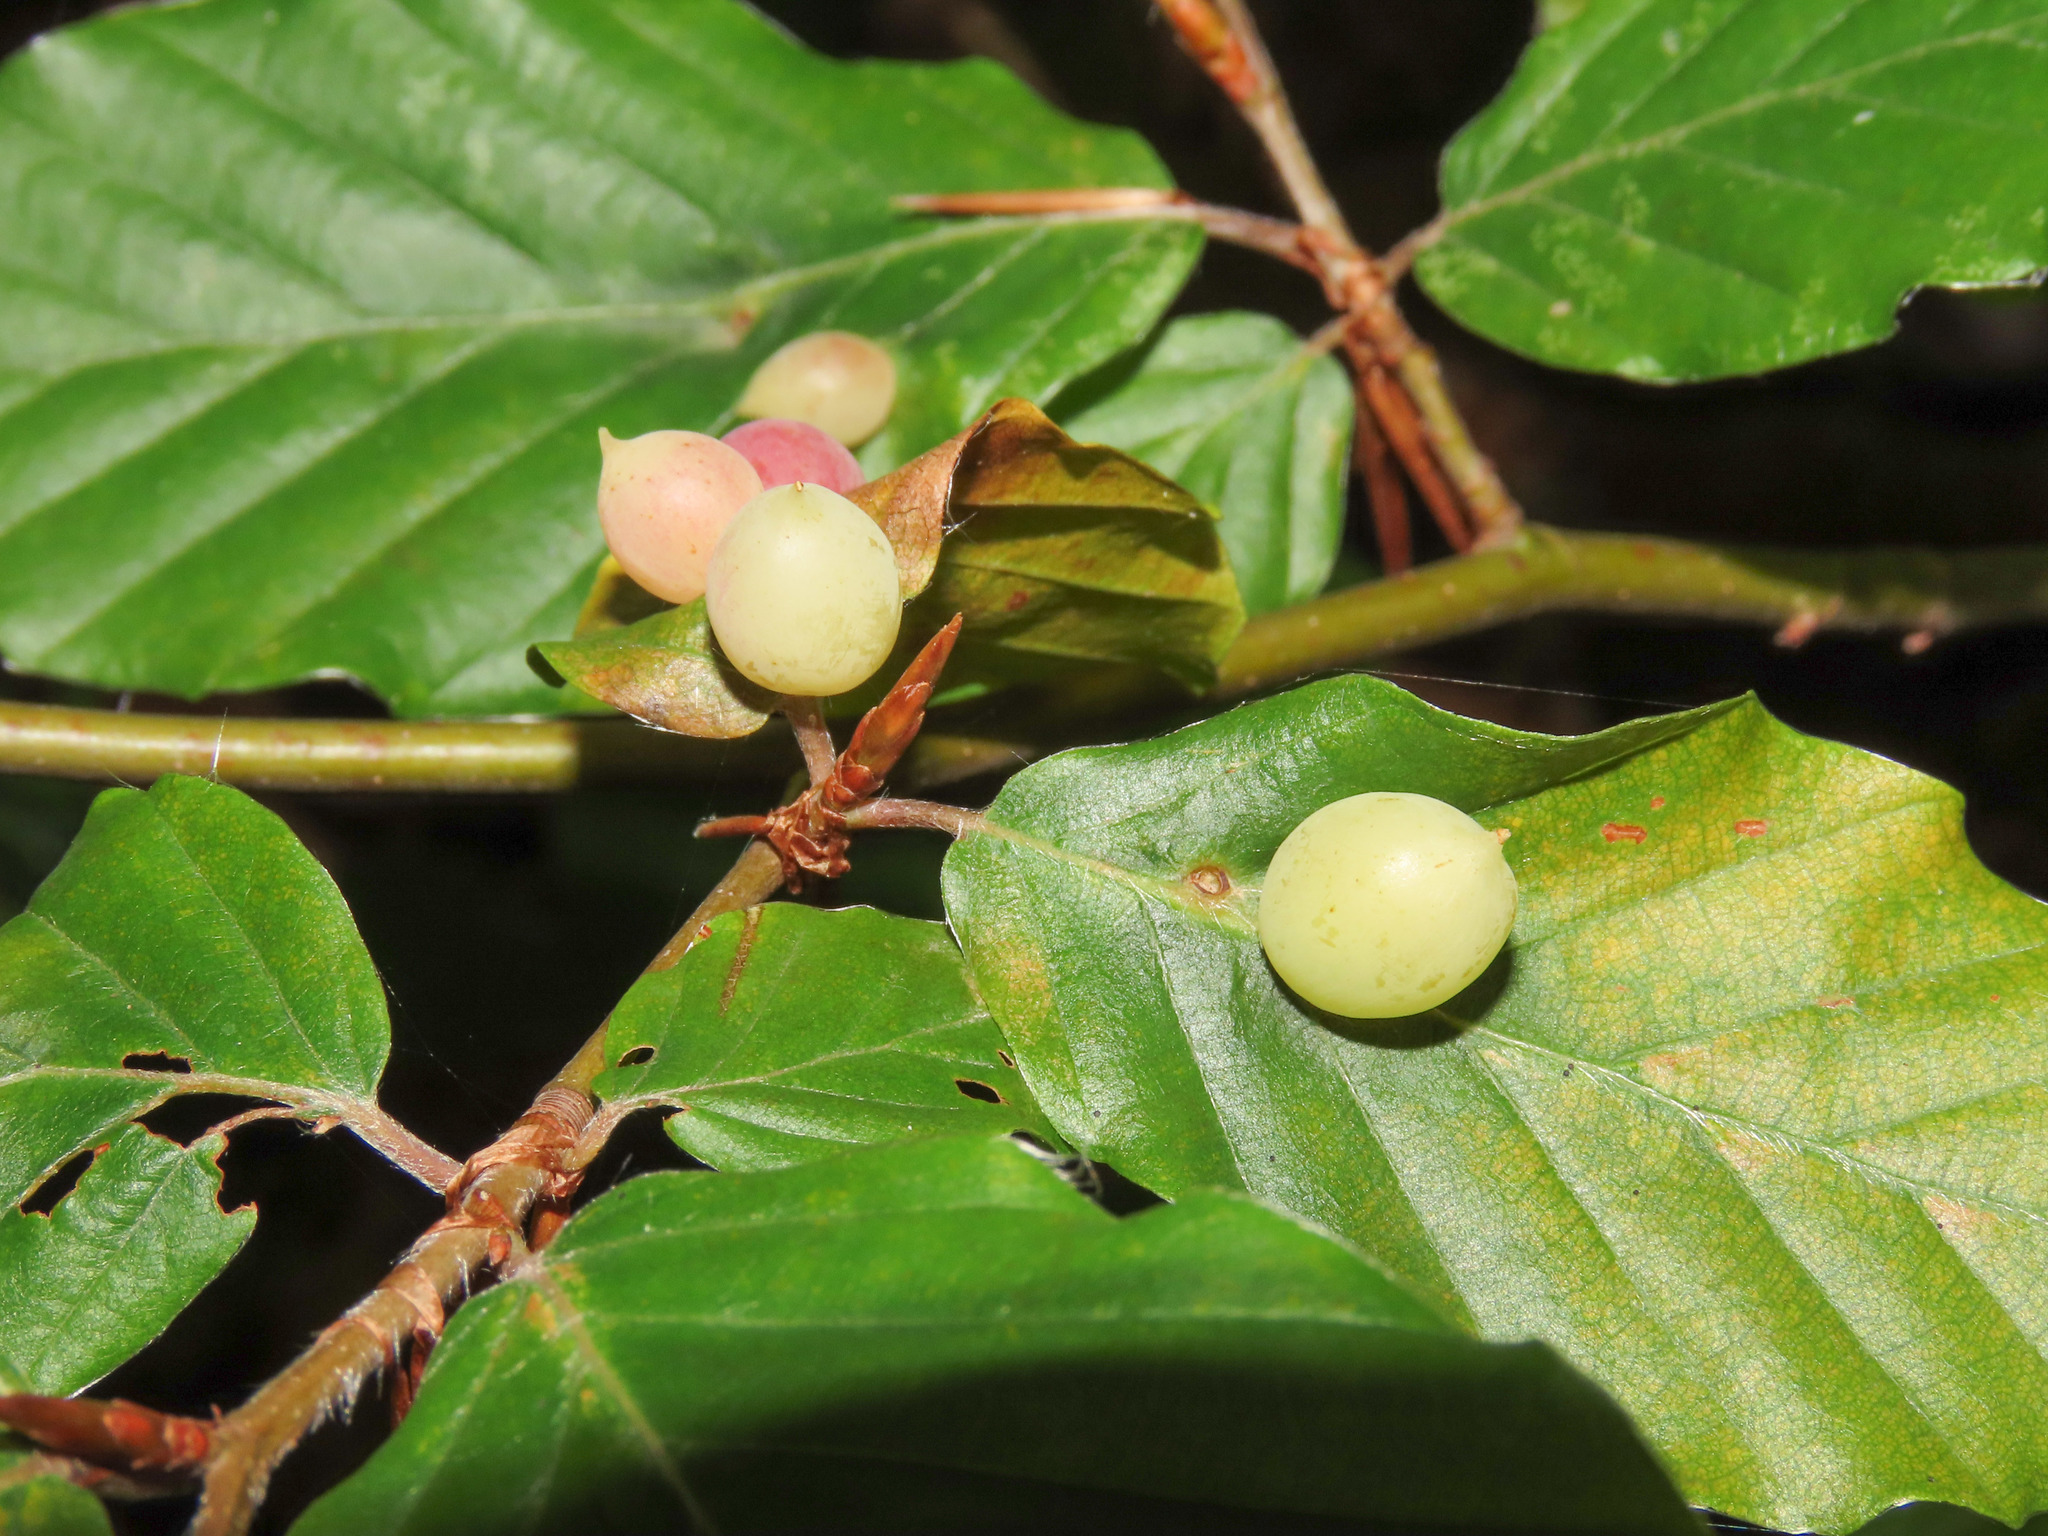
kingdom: Animalia
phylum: Arthropoda
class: Insecta
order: Diptera
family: Cecidomyiidae
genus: Mikiola
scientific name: Mikiola fagi
